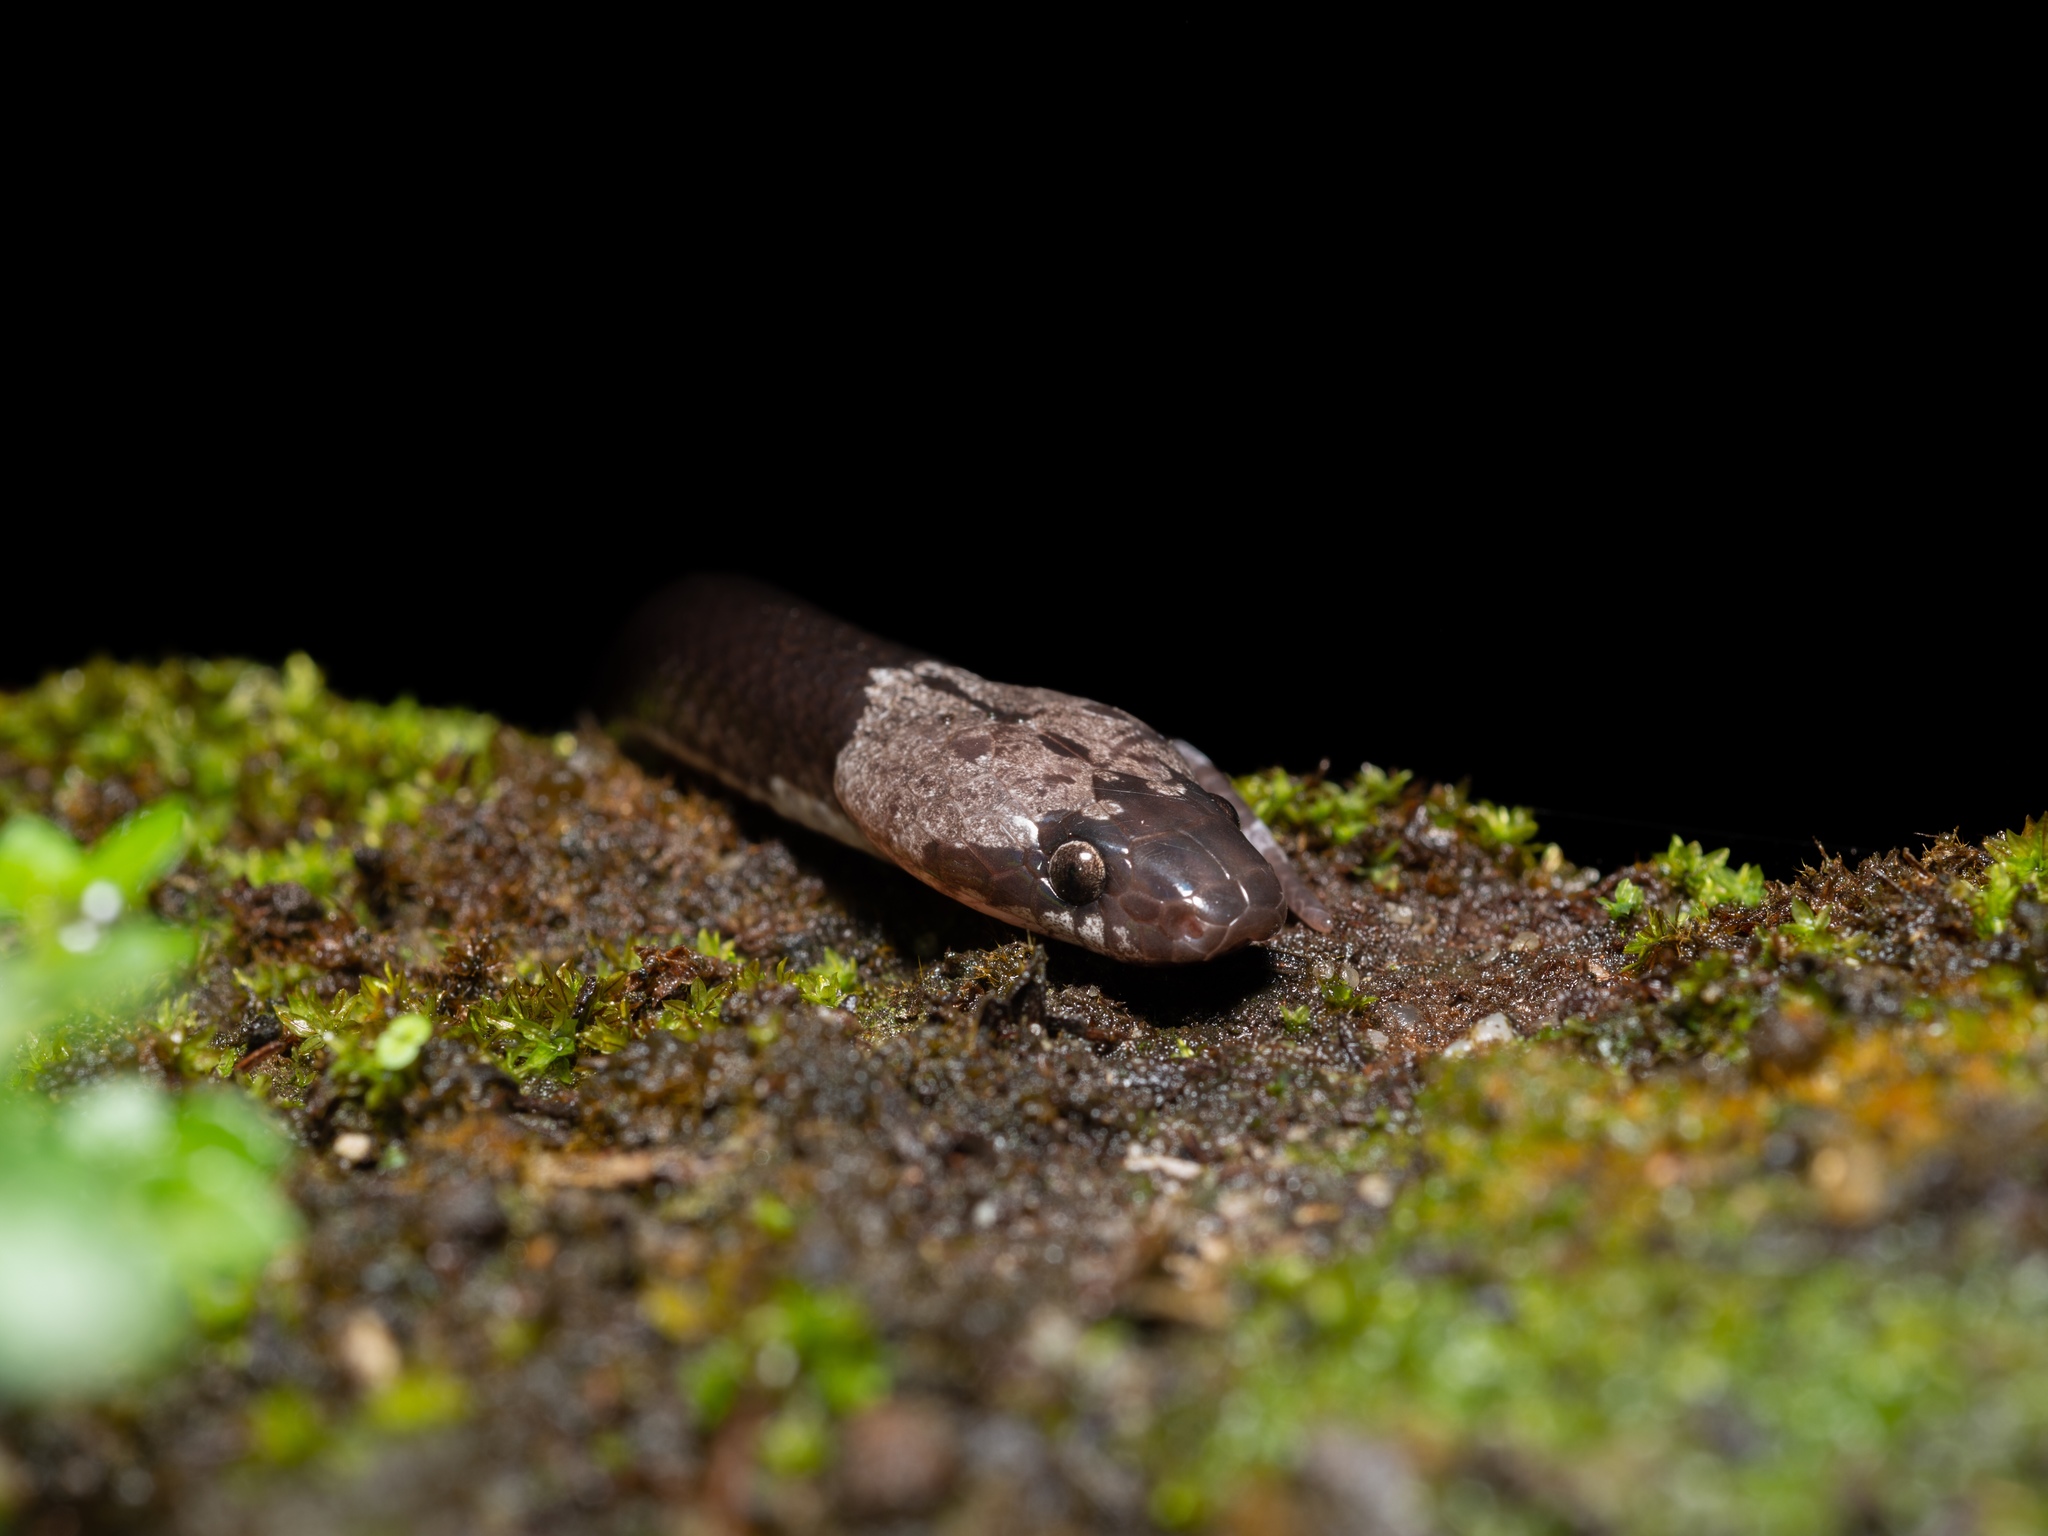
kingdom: Animalia
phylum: Chordata
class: Squamata
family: Colubridae
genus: Lycodon
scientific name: Lycodon futsingensis
